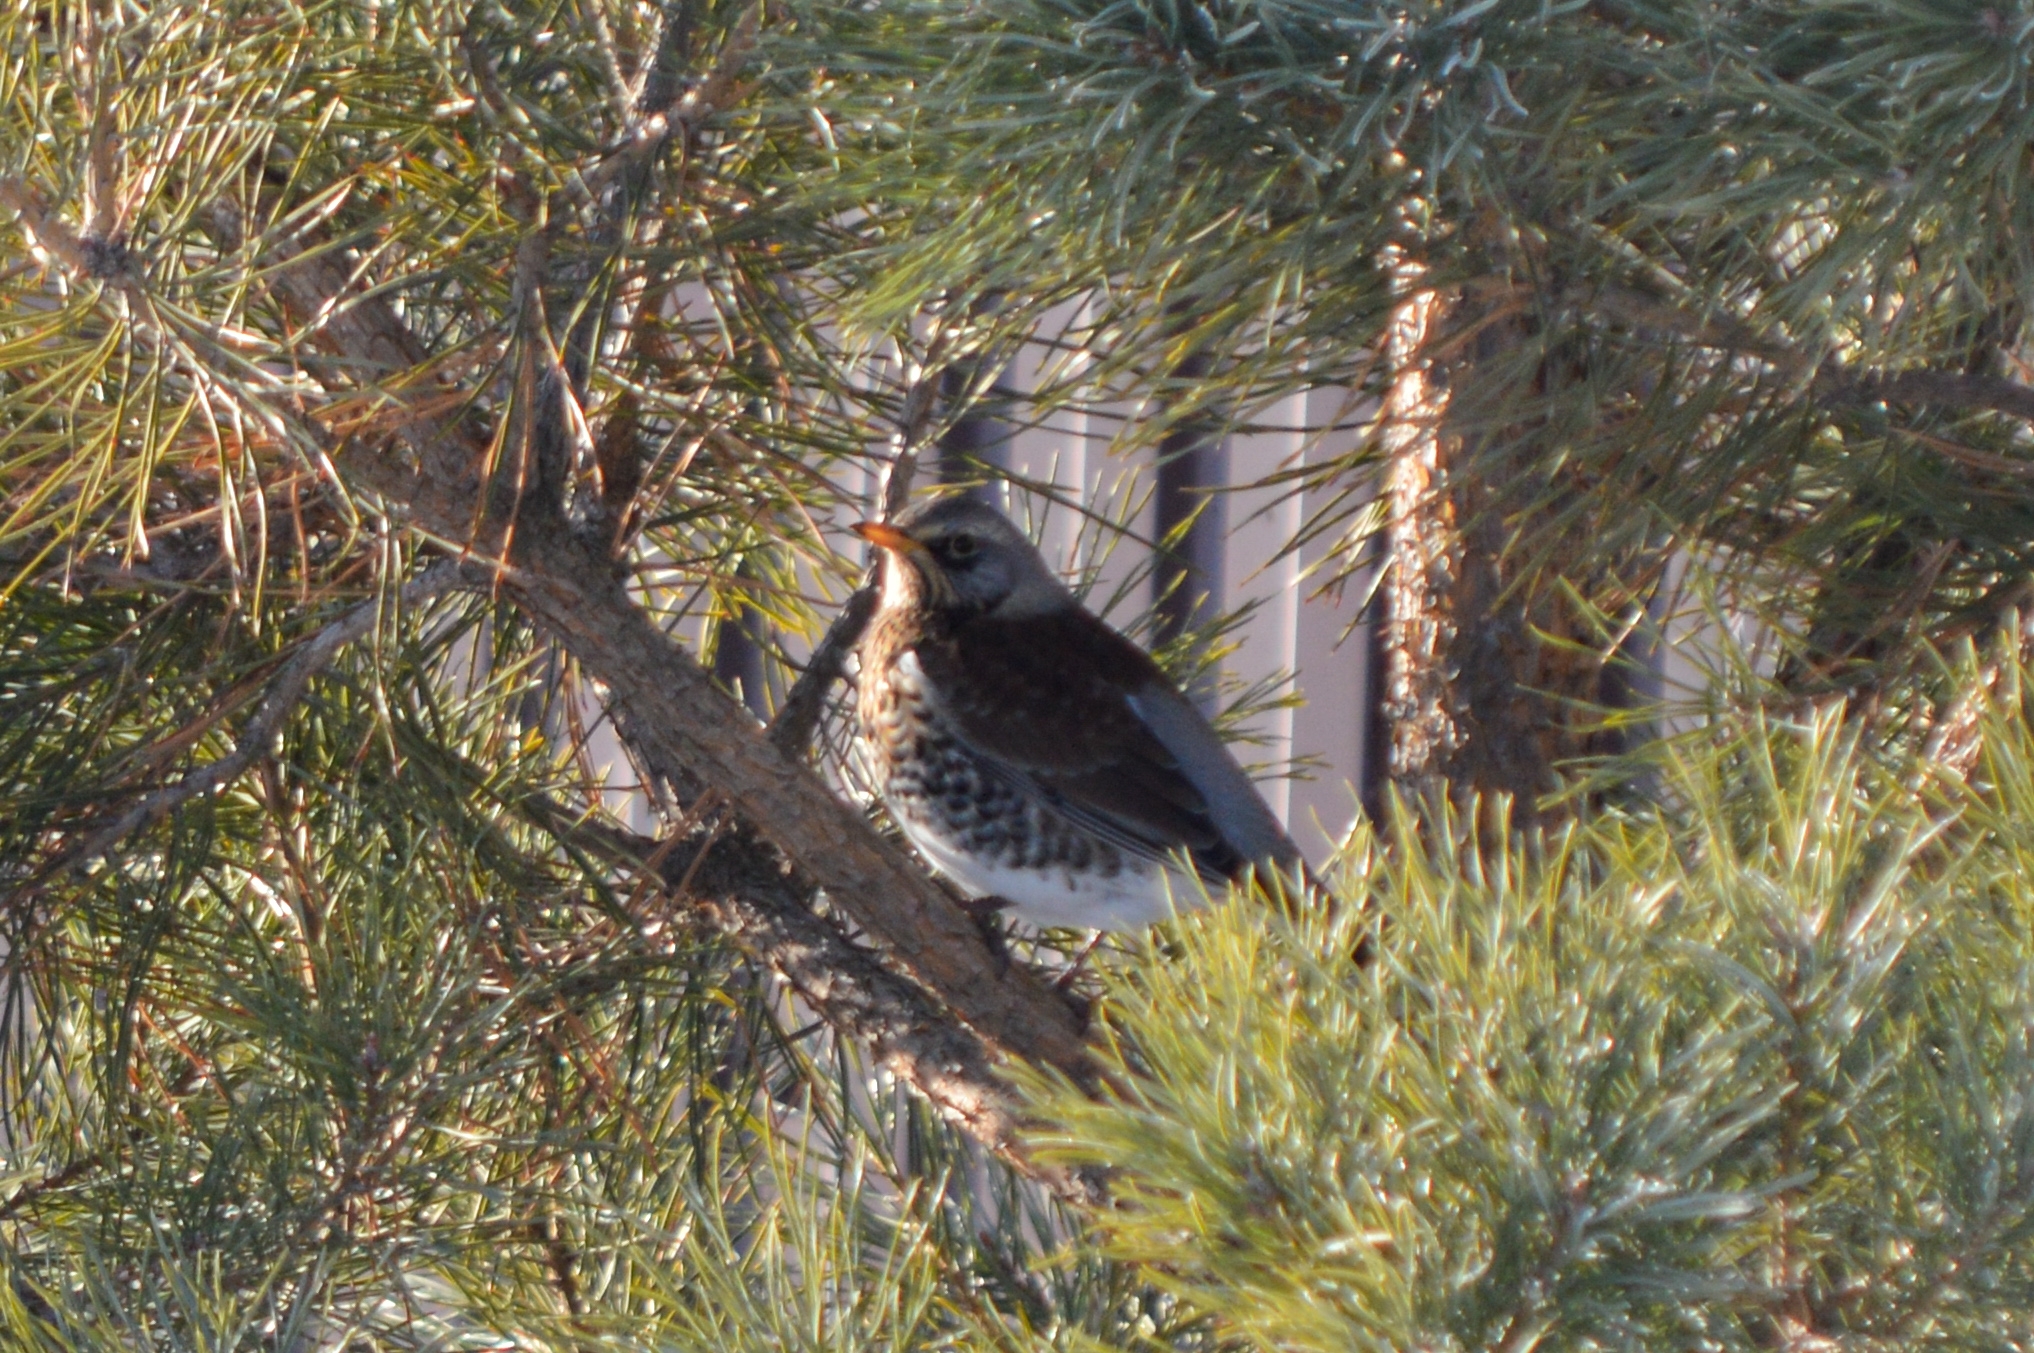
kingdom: Animalia
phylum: Chordata
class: Aves
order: Passeriformes
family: Turdidae
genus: Turdus
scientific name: Turdus pilaris
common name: Fieldfare
